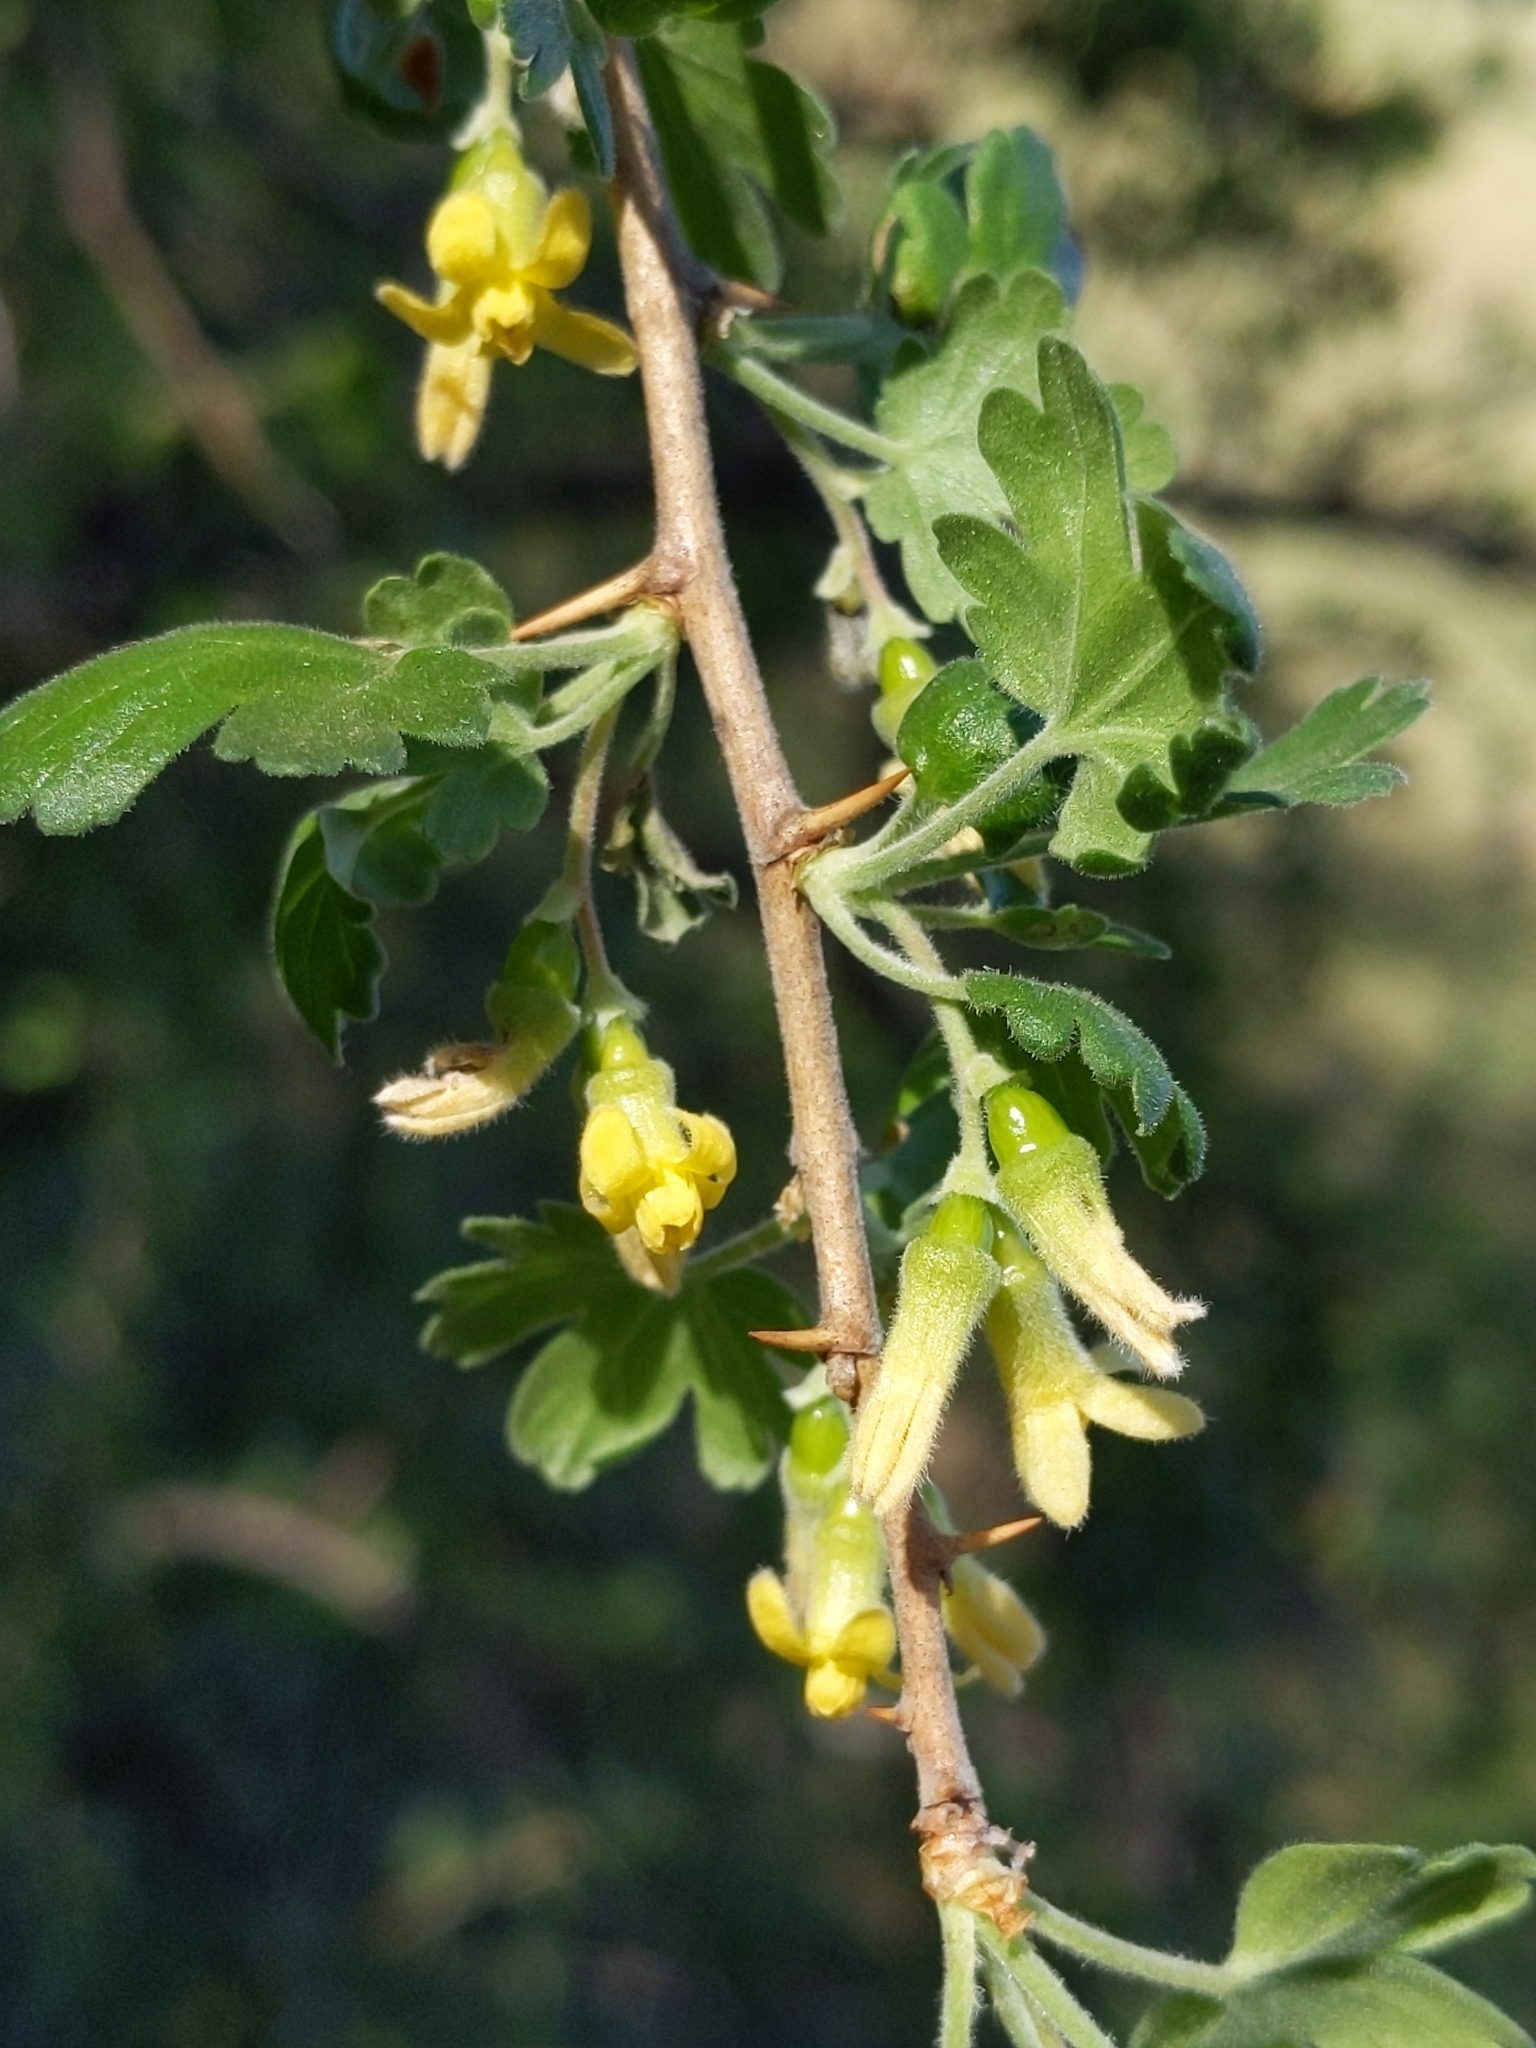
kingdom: Plantae
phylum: Tracheophyta
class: Magnoliopsida
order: Saxifragales
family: Grossulariaceae
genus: Ribes
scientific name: Ribes quercetorum
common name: Oak gooseberry
